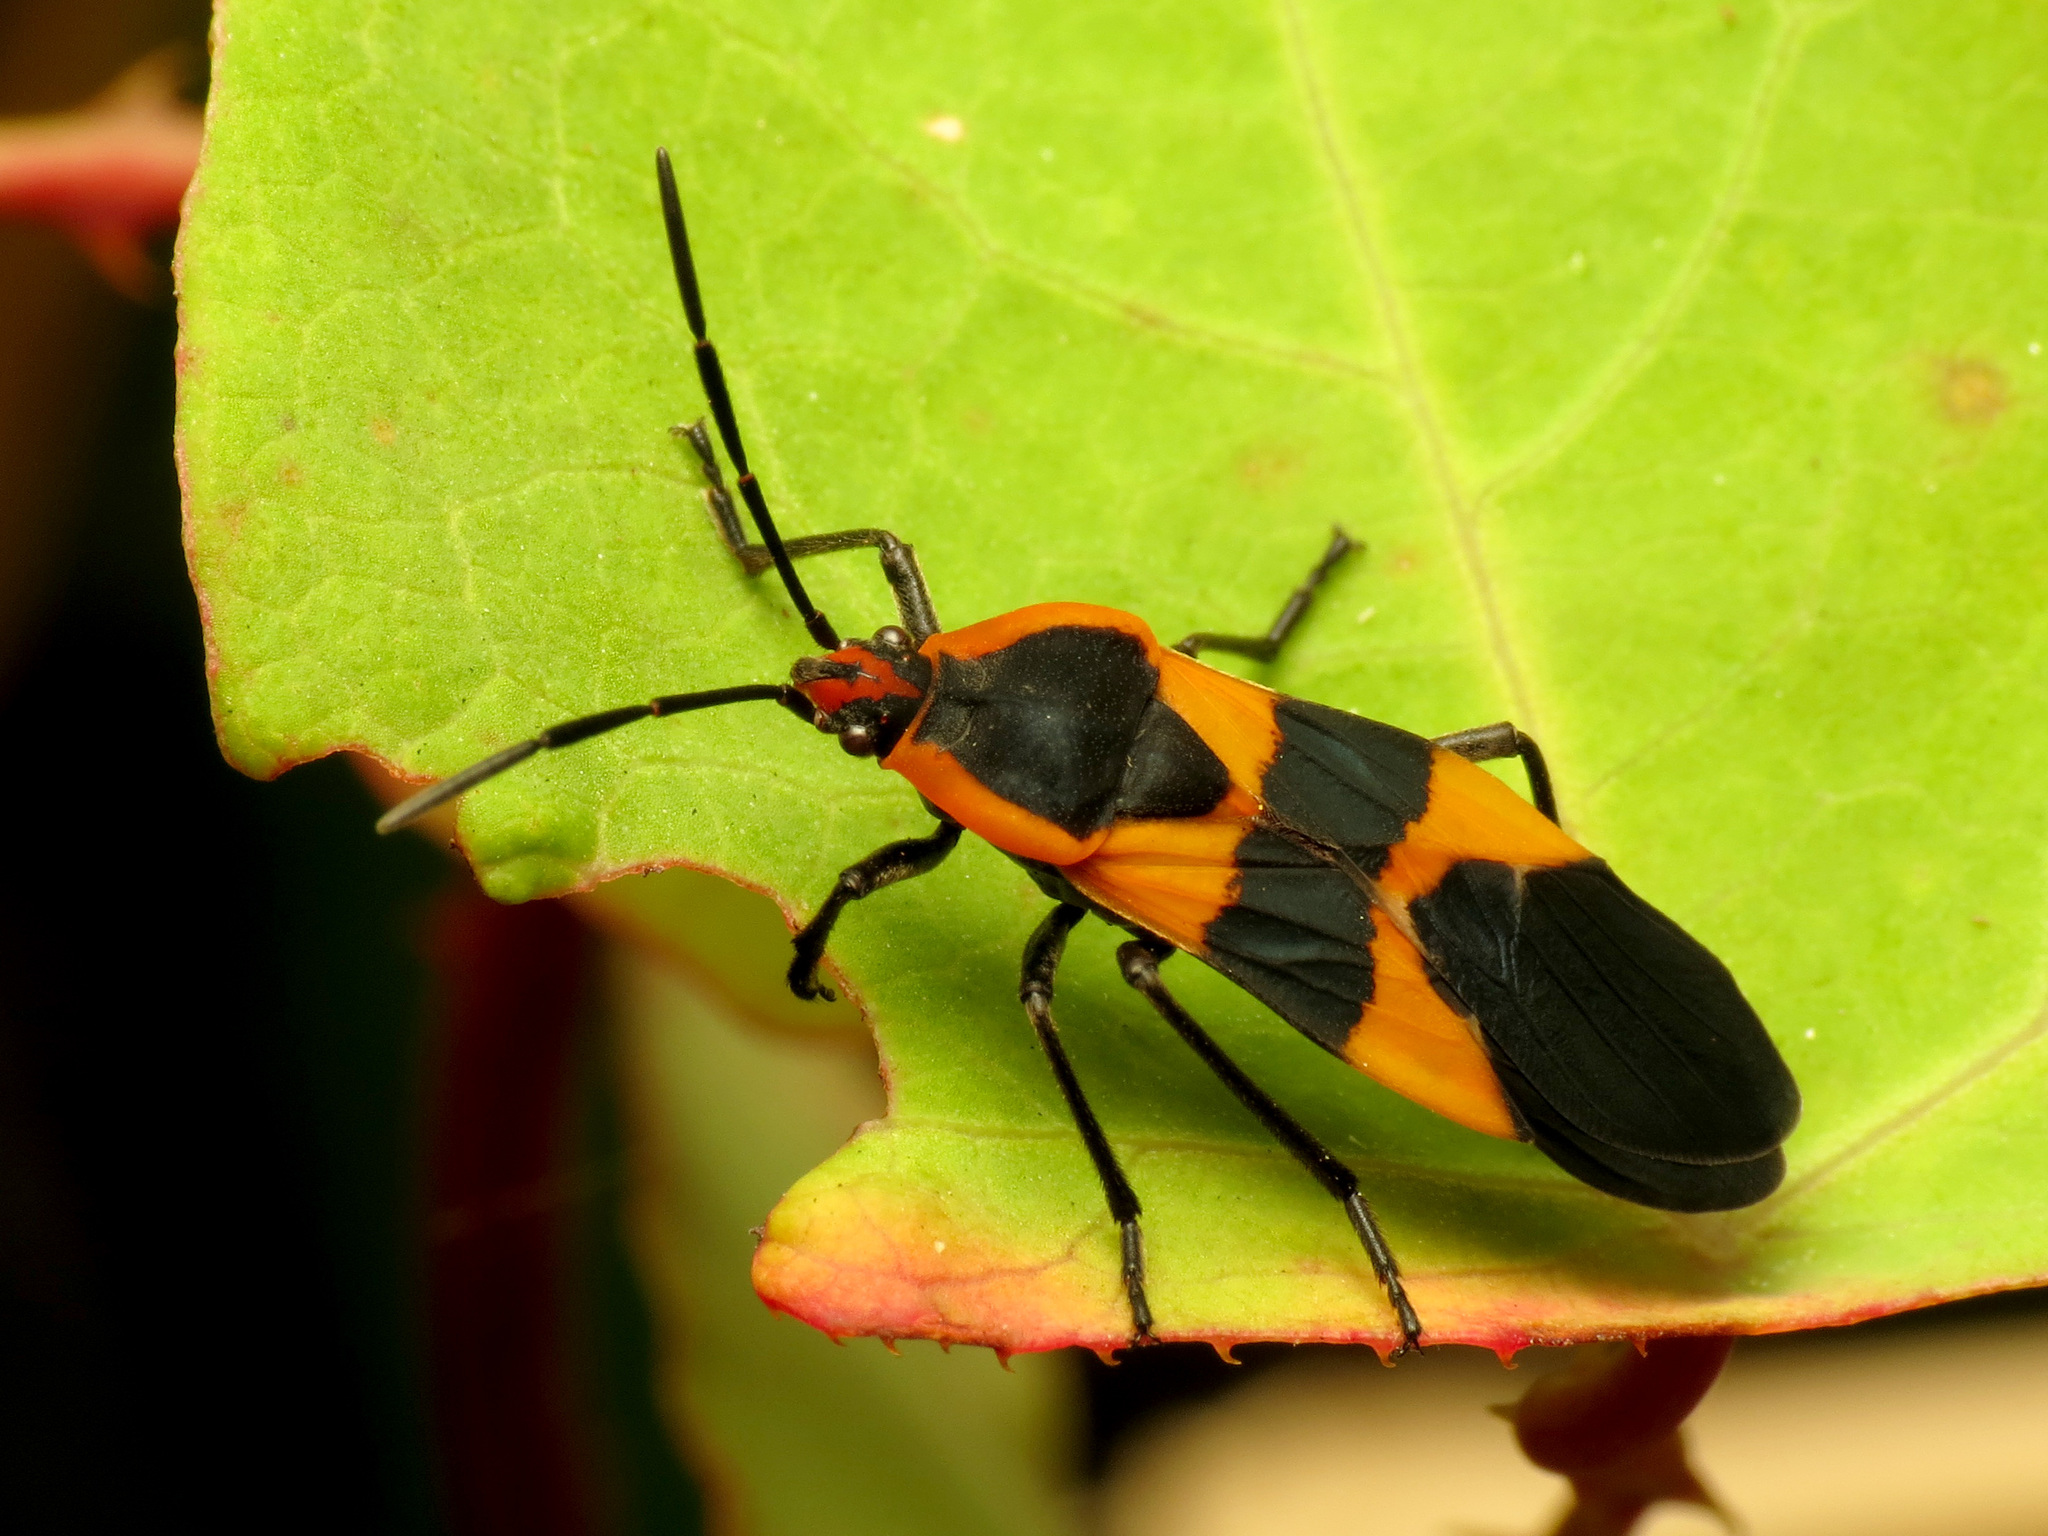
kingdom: Animalia
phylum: Arthropoda
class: Insecta
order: Hemiptera
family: Lygaeidae
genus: Oncopeltus
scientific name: Oncopeltus fasciatus
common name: Large milkweed bug
